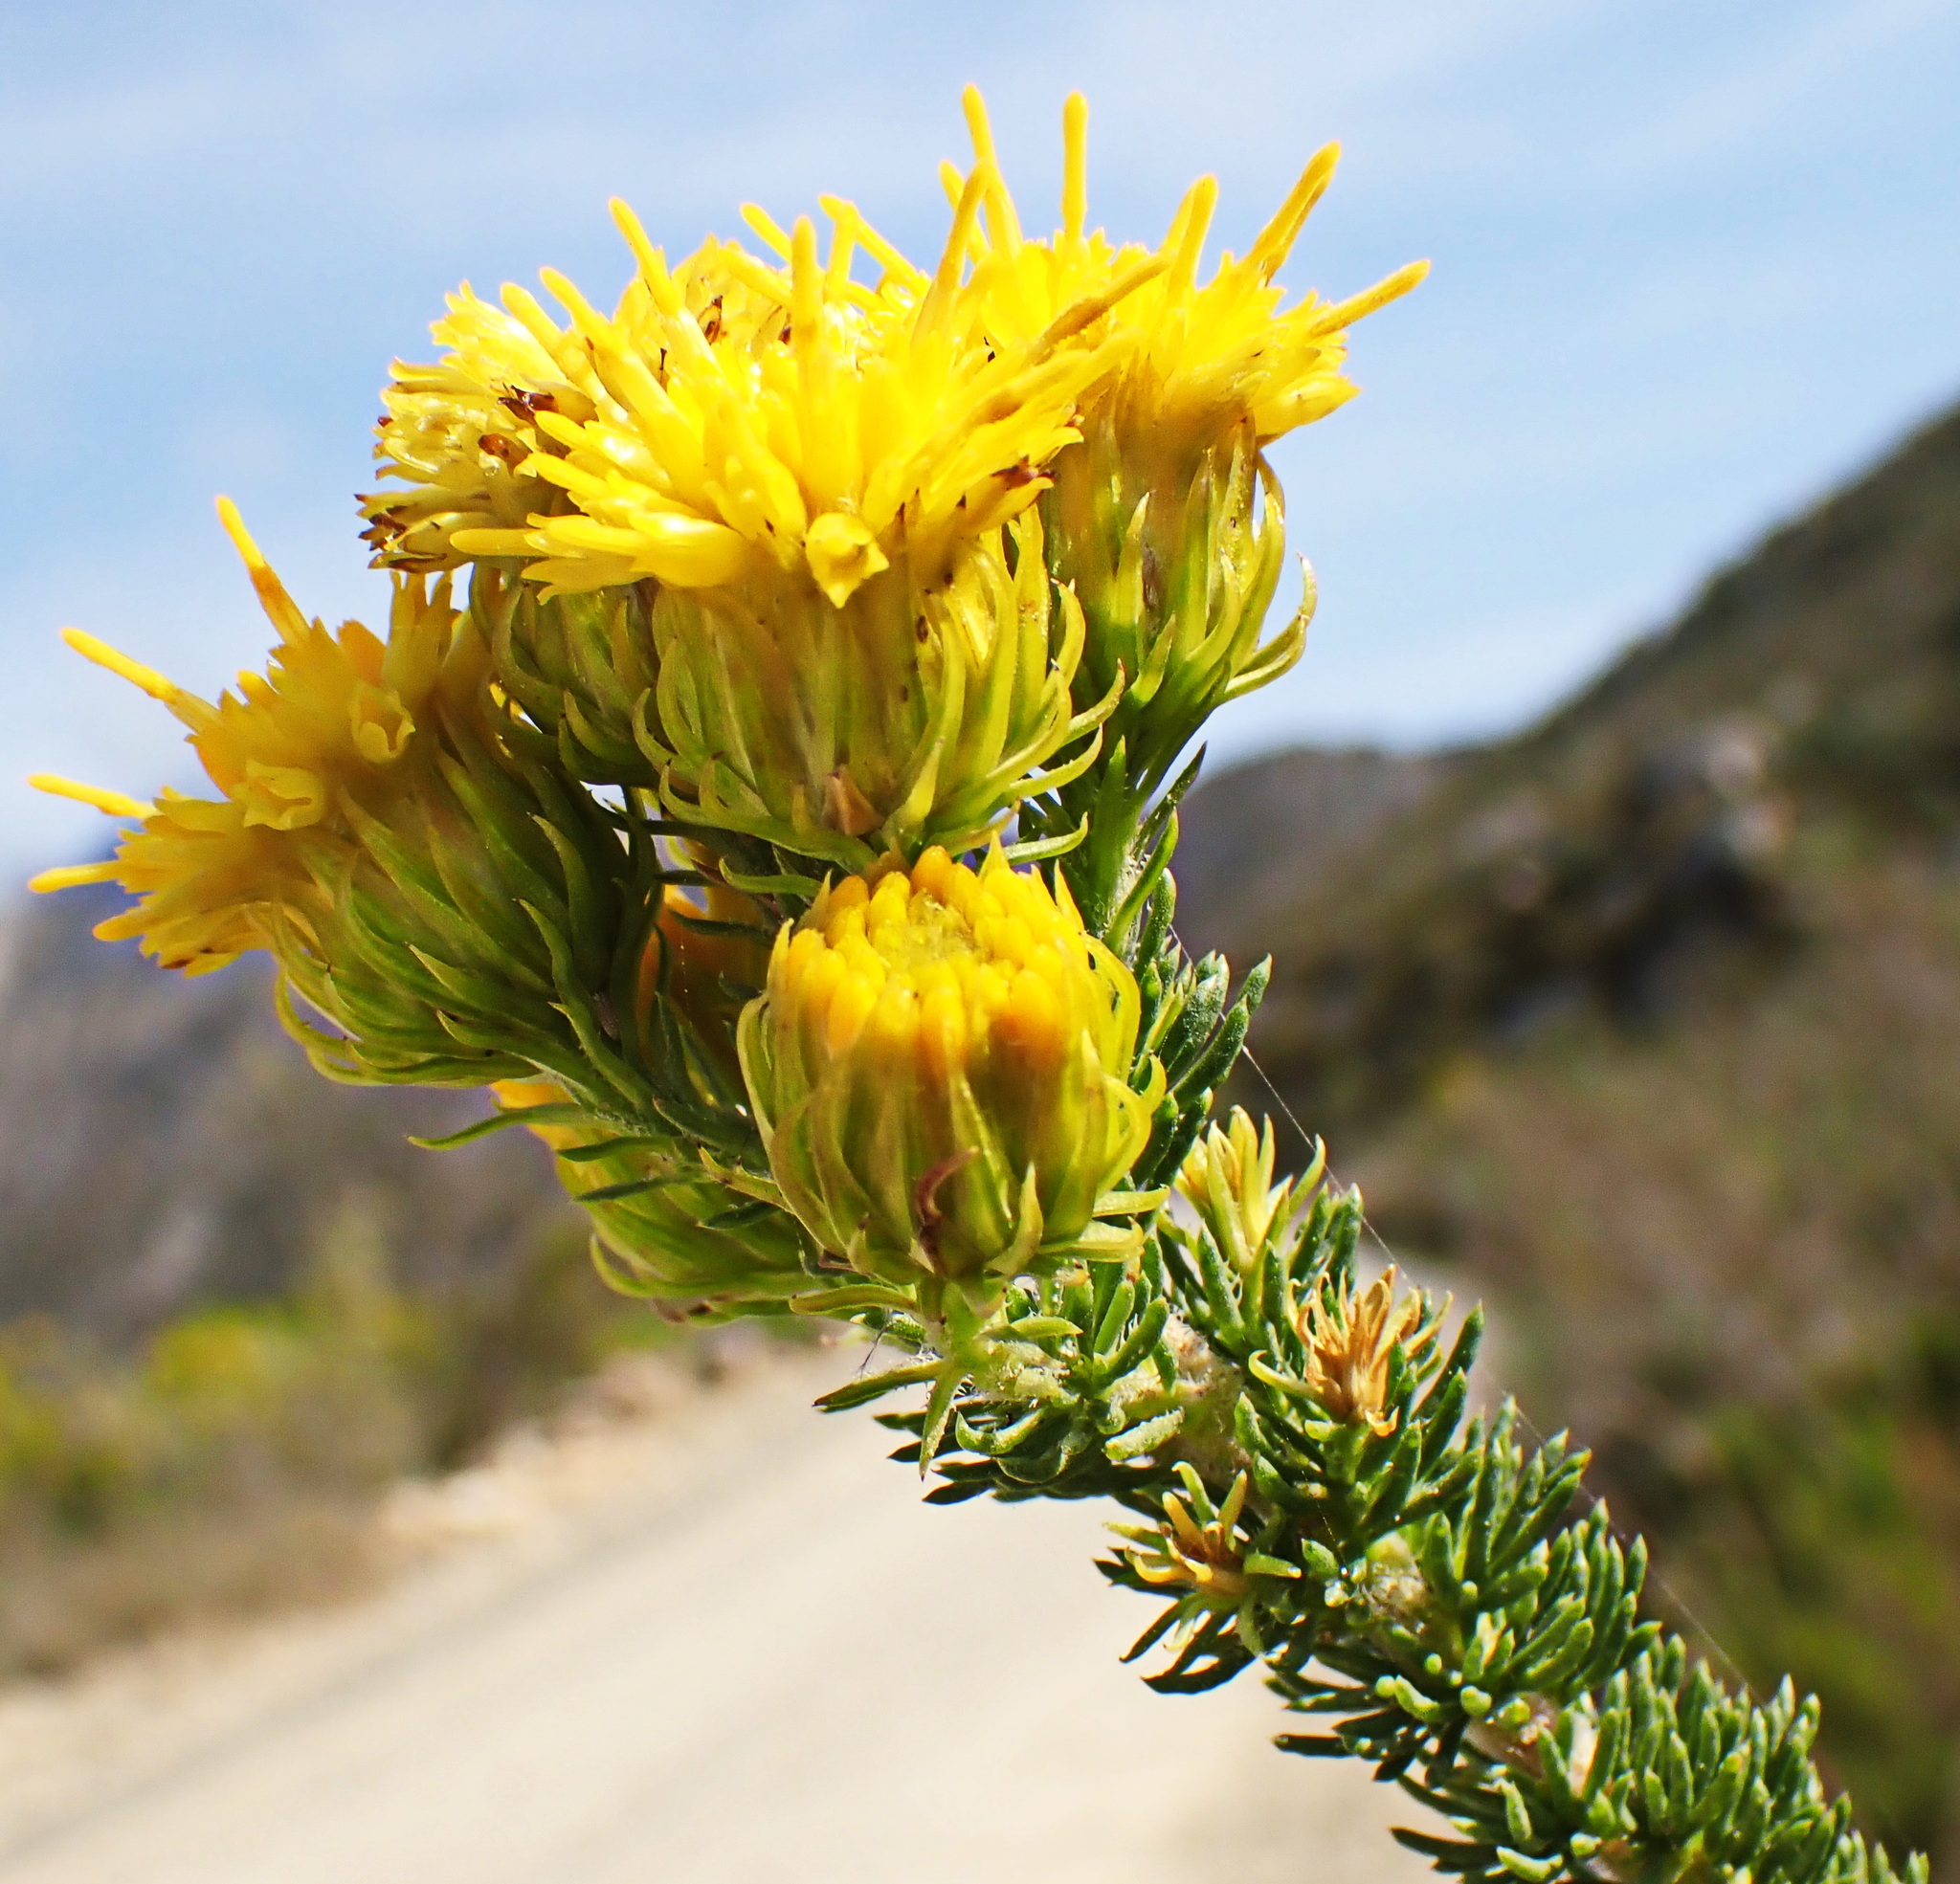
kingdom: Plantae
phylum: Tracheophyta
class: Magnoliopsida
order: Asterales
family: Asteraceae
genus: Pteronia
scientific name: Pteronia camphorata
